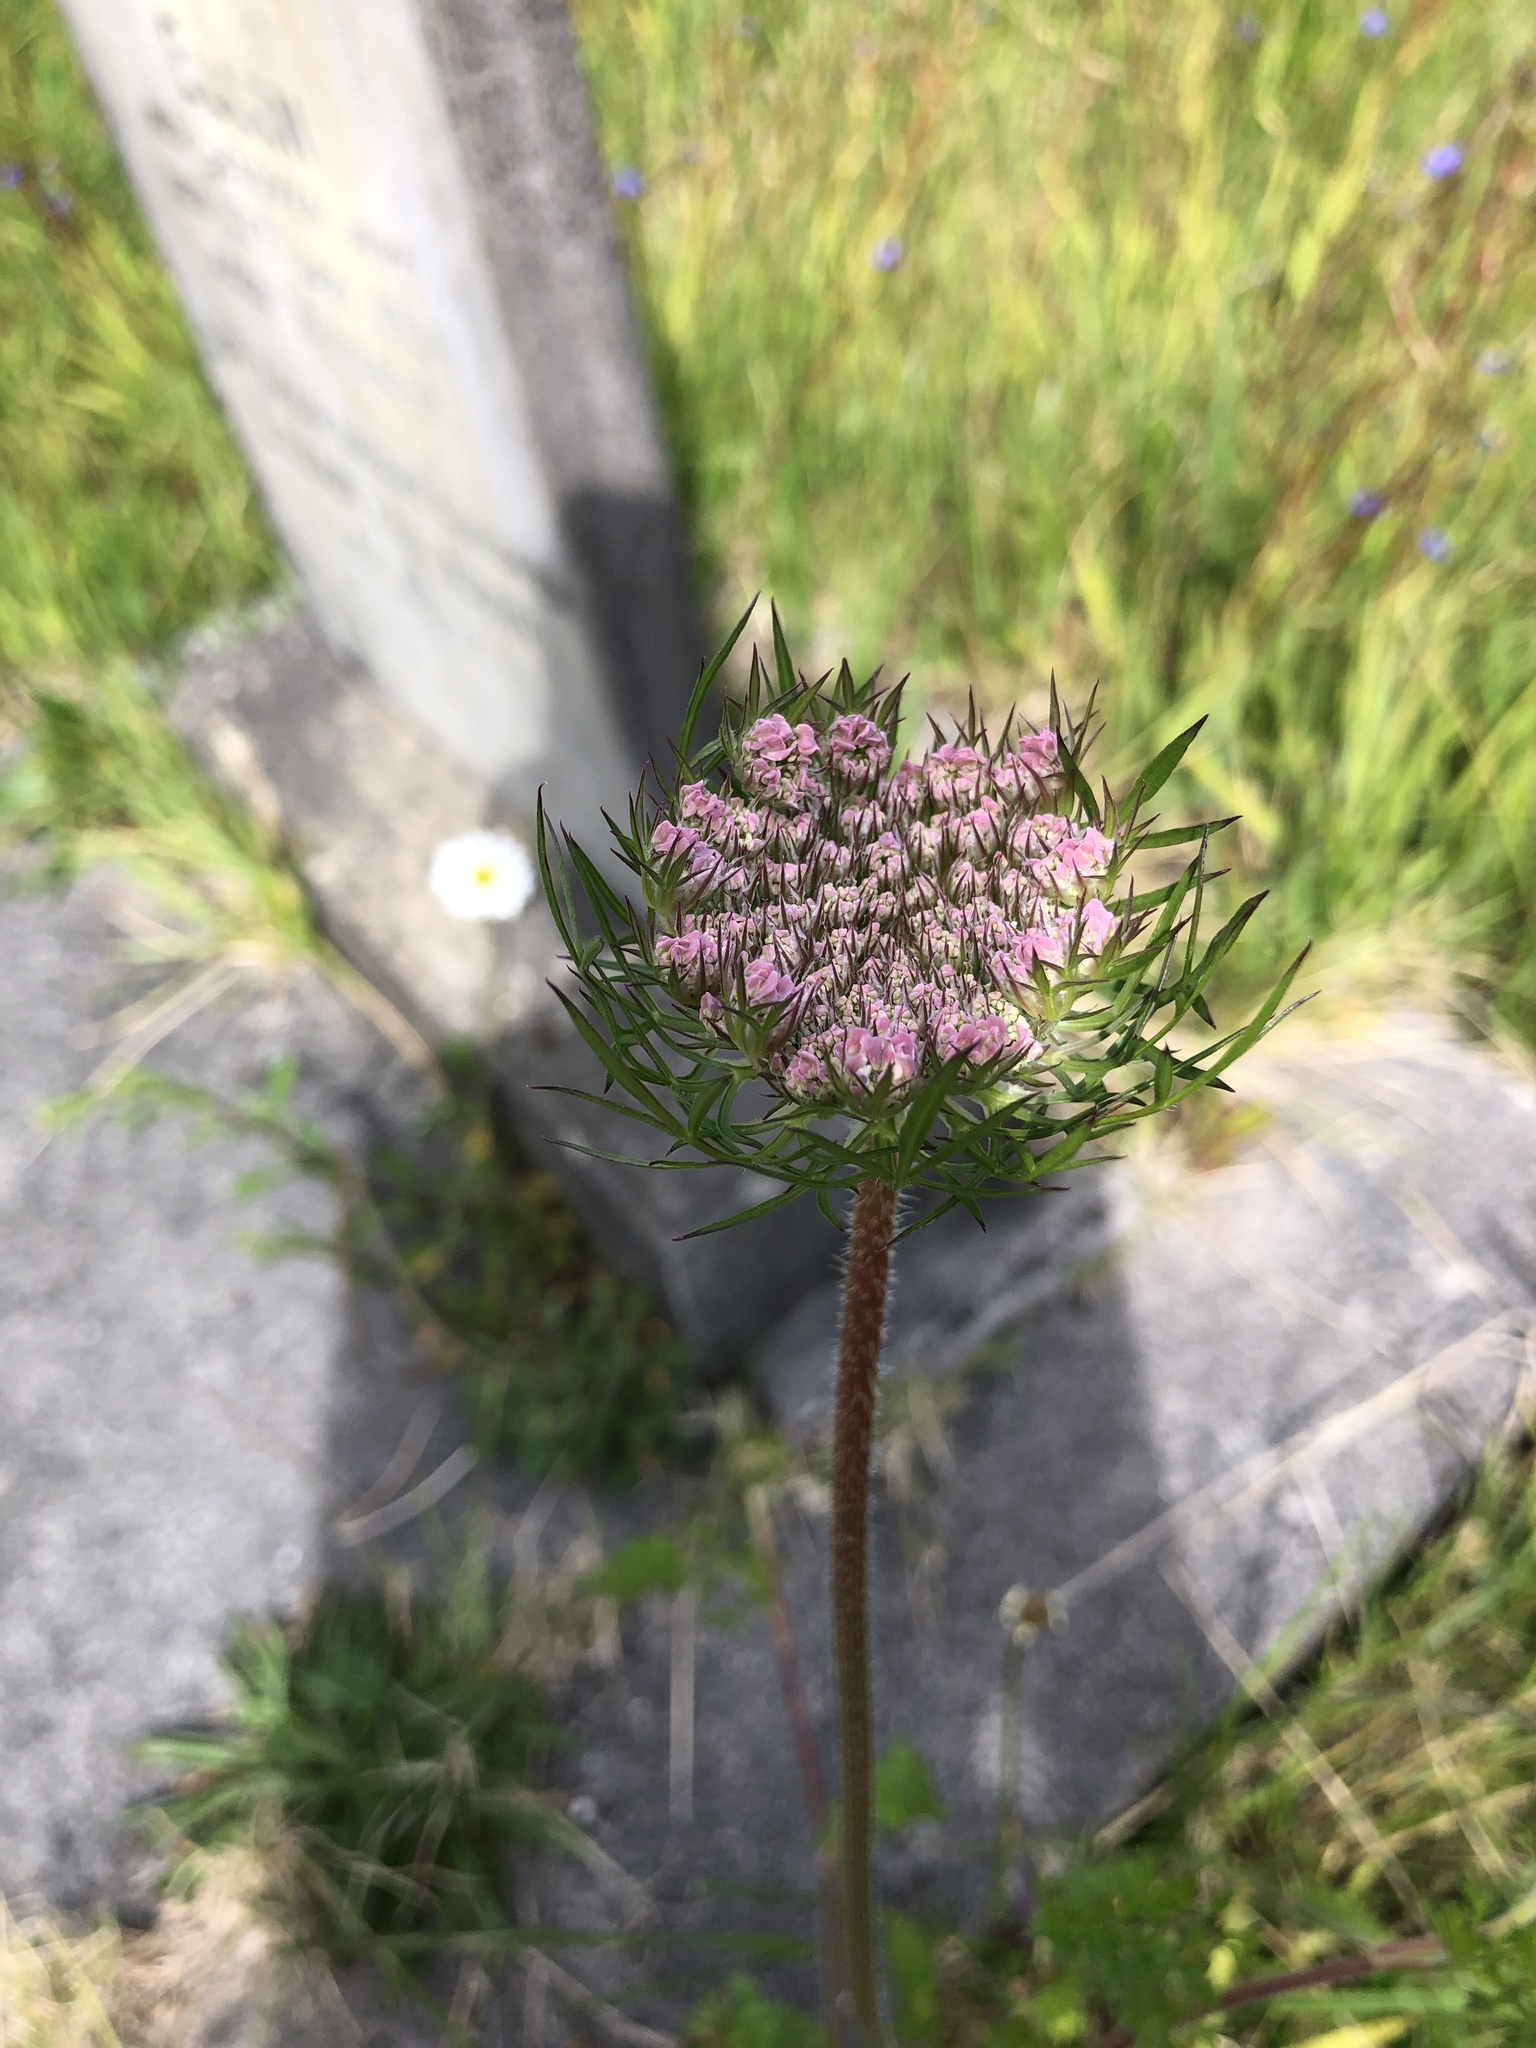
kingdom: Plantae
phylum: Tracheophyta
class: Magnoliopsida
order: Apiales
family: Apiaceae
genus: Daucus
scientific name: Daucus carota
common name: Wild carrot
